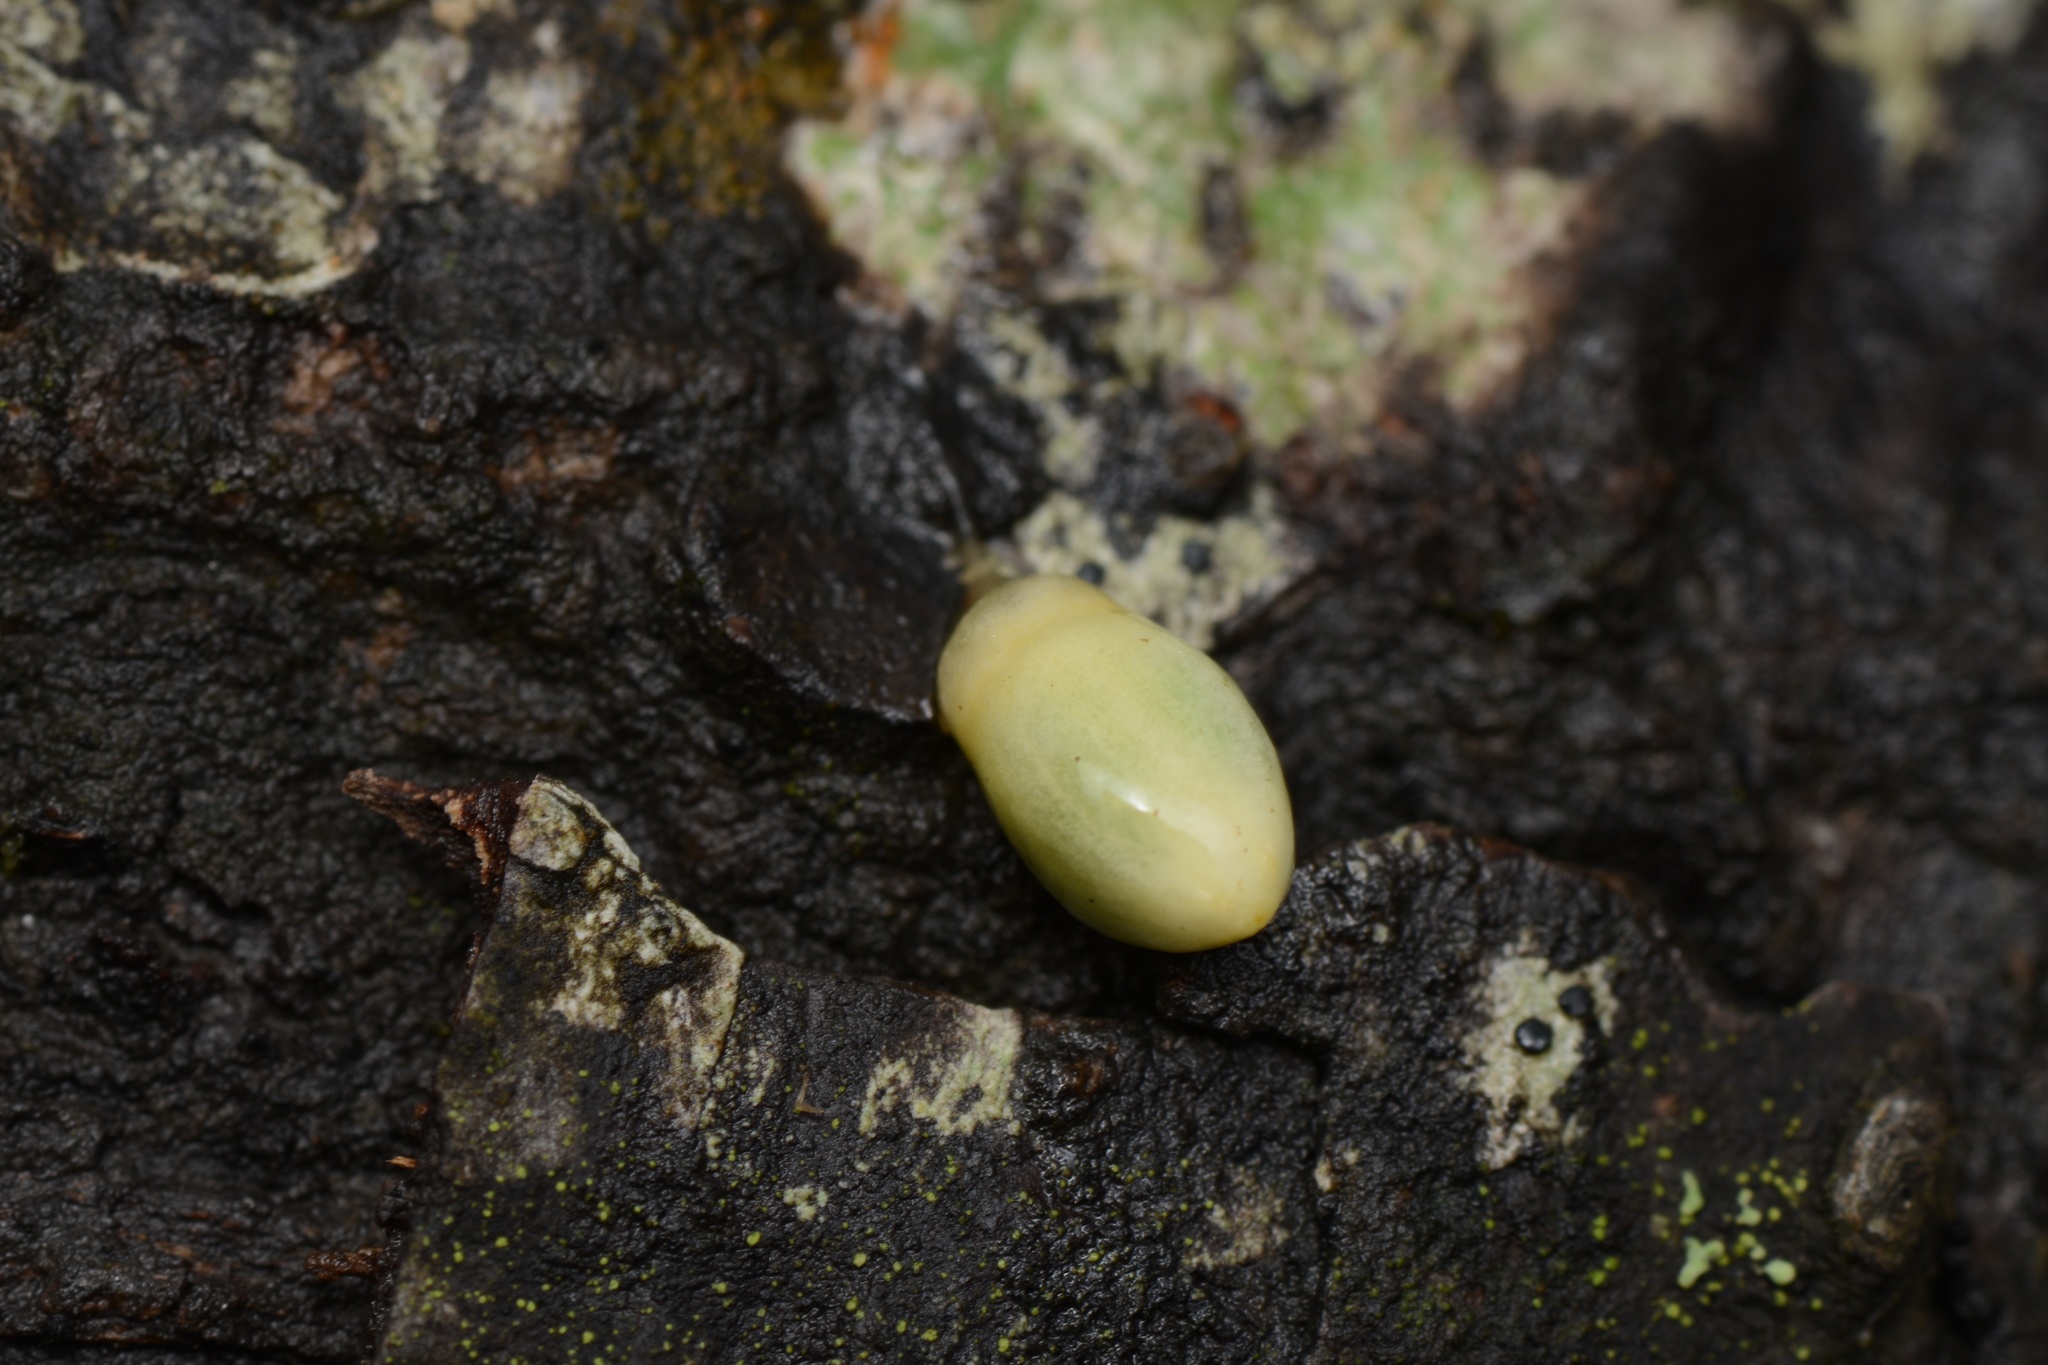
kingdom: Plantae
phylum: Tracheophyta
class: Magnoliopsida
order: Santalales
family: Loranthaceae
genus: Alepis
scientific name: Alepis flavida
